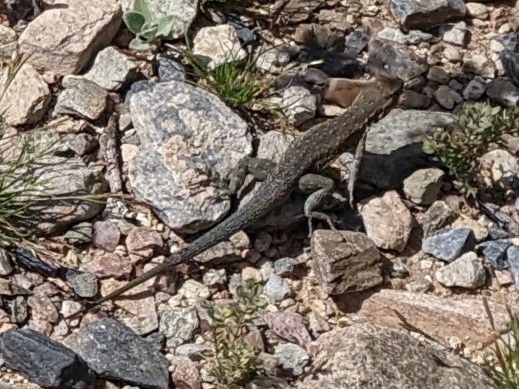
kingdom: Animalia
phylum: Chordata
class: Squamata
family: Phrynosomatidae
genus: Uta
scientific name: Uta stansburiana
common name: Side-blotched lizard
